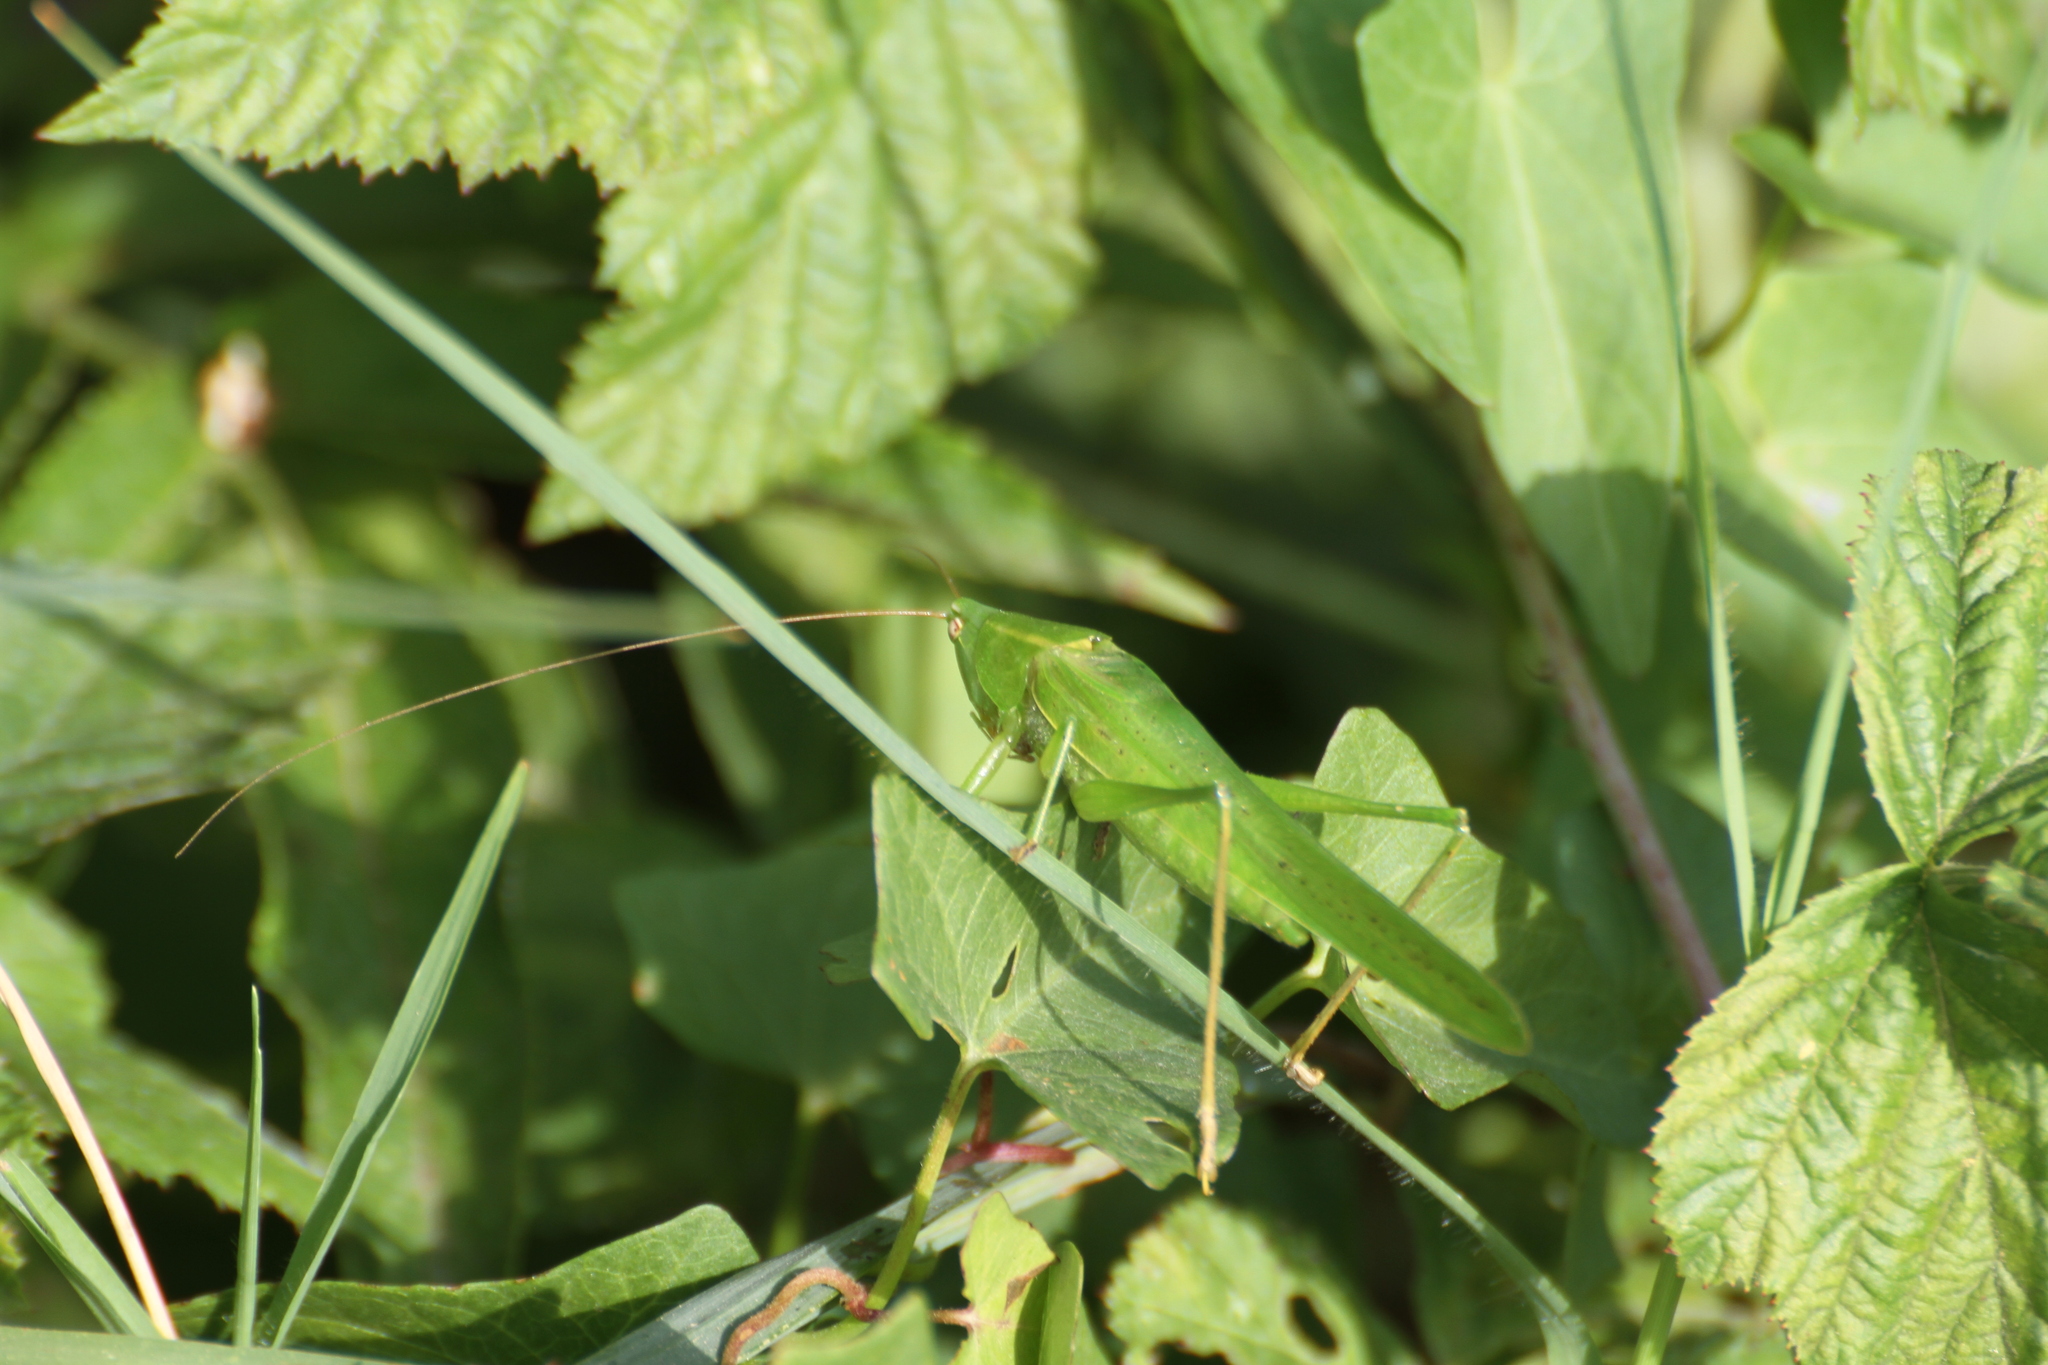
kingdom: Animalia
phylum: Arthropoda
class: Insecta
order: Orthoptera
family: Tettigoniidae
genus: Ruspolia
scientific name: Ruspolia nitidula
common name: Large conehead
